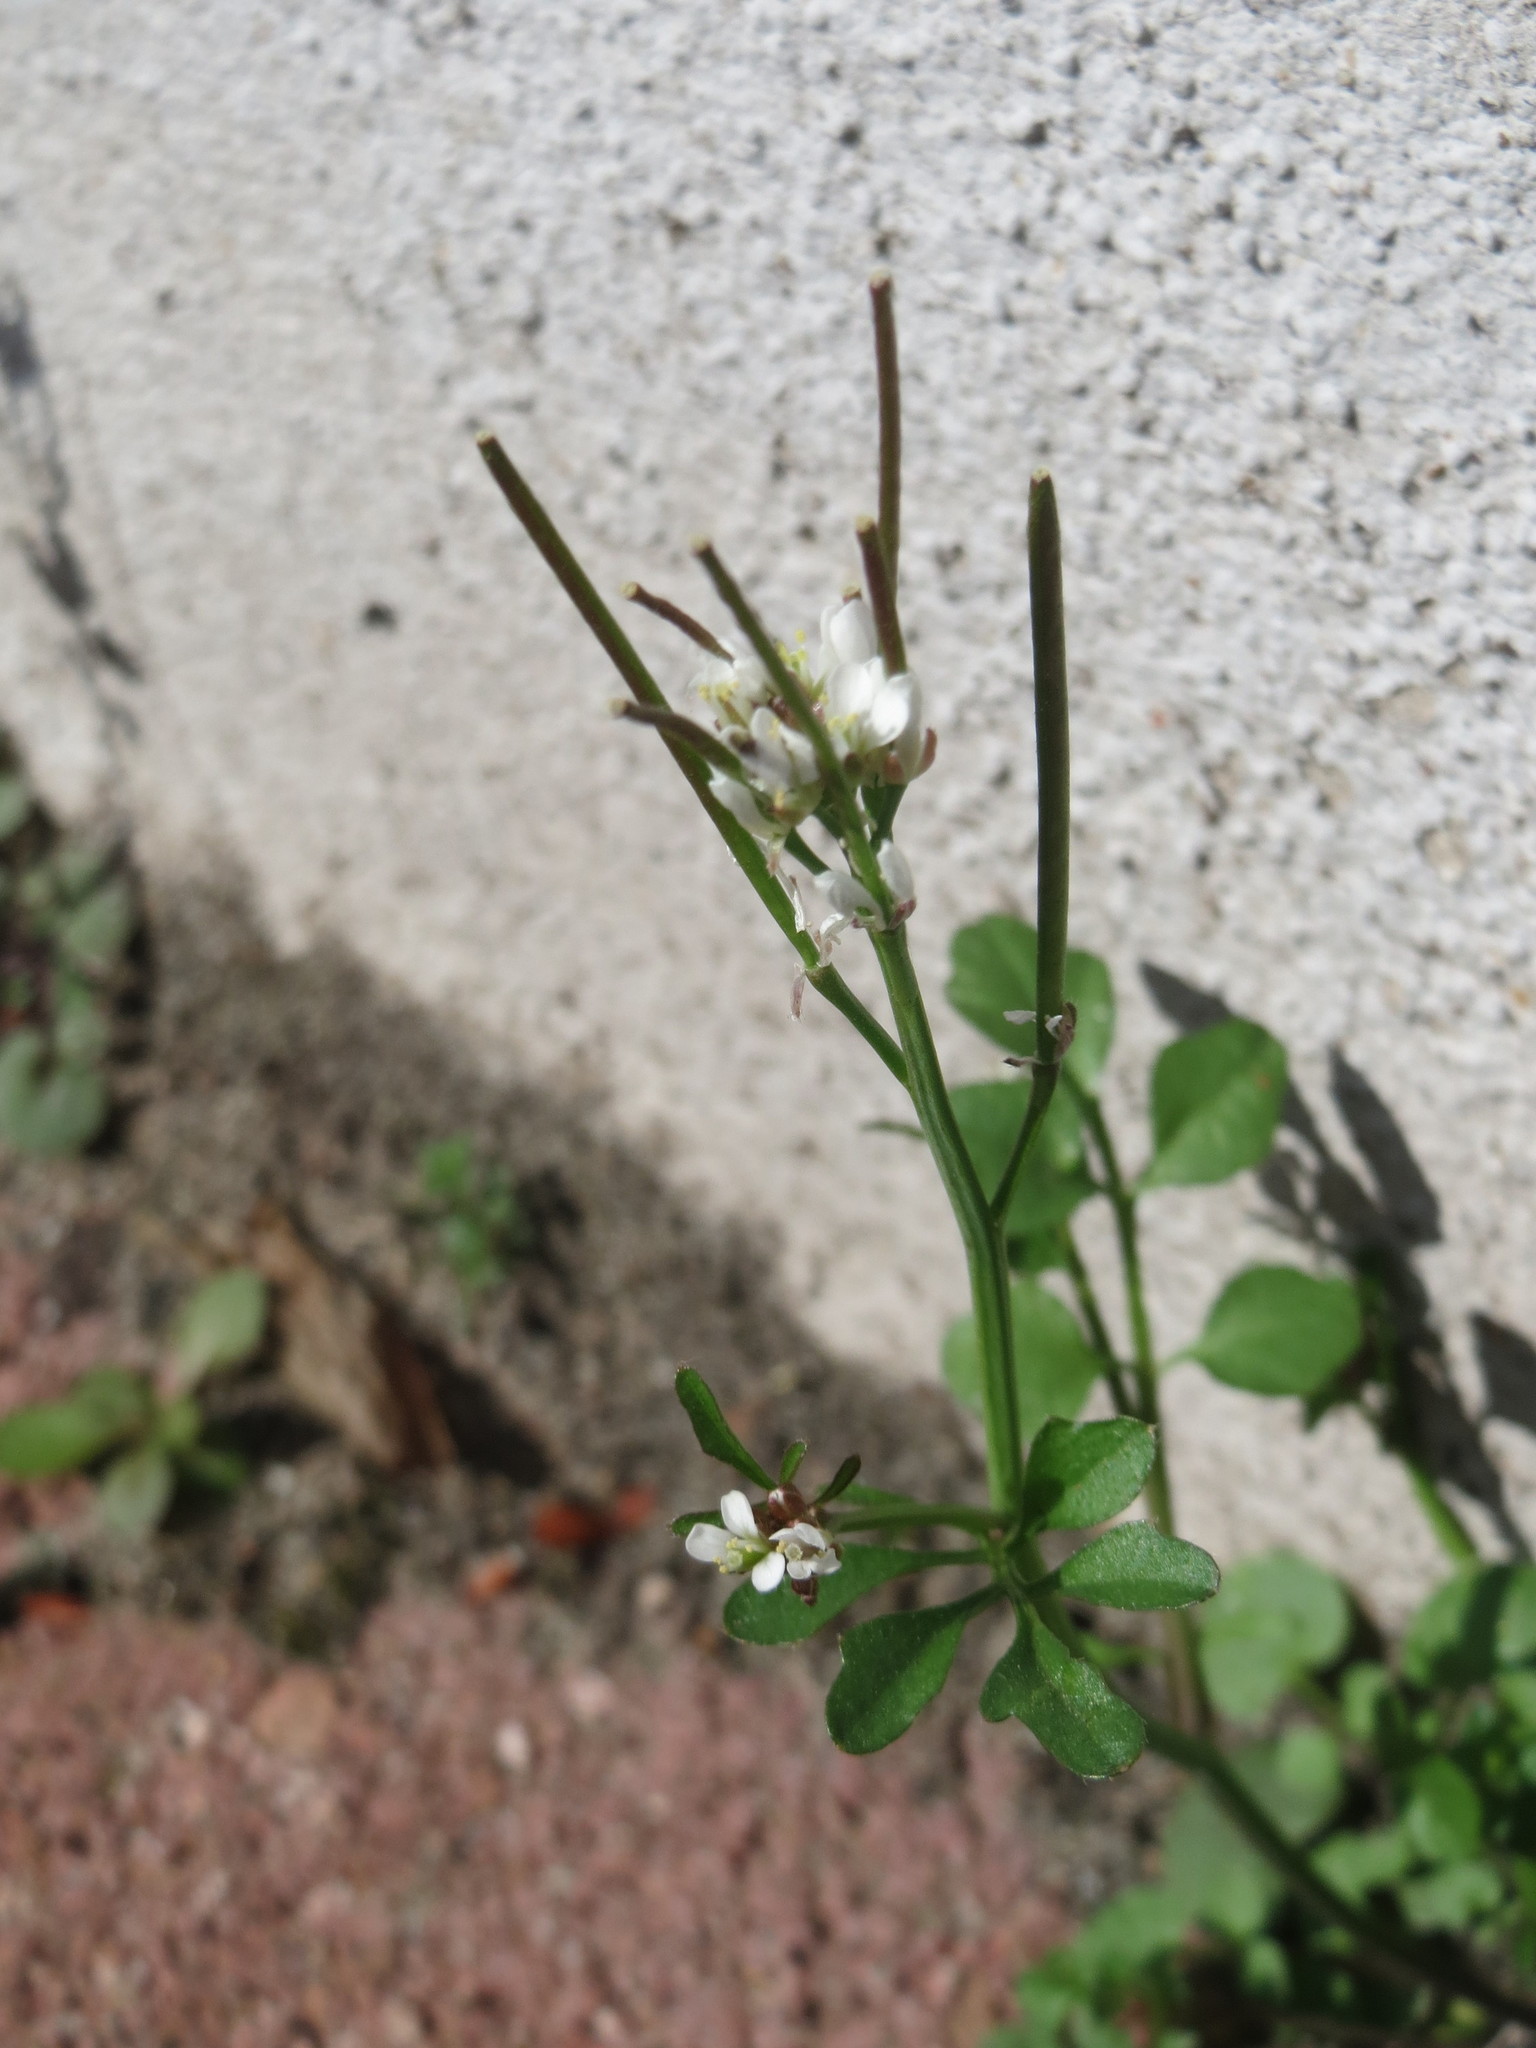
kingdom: Plantae
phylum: Tracheophyta
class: Magnoliopsida
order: Brassicales
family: Brassicaceae
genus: Cardamine
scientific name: Cardamine hirsuta
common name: Hairy bittercress
